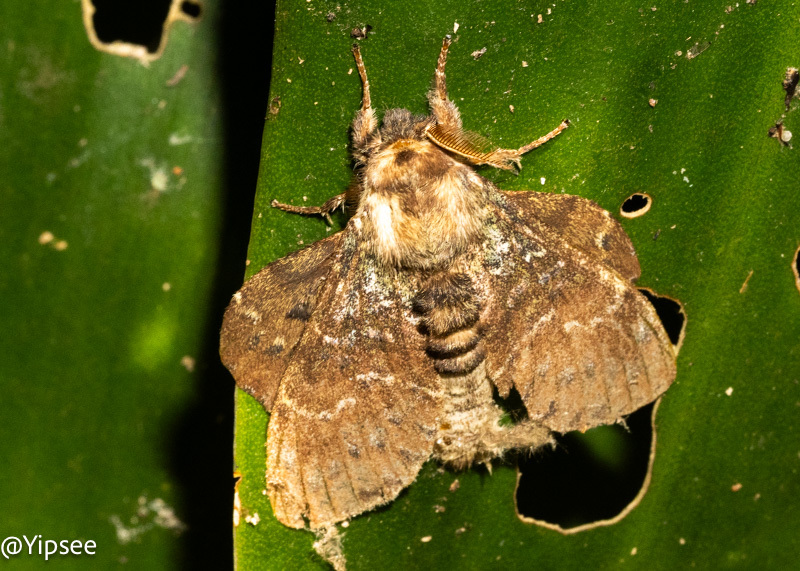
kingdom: Animalia
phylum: Arthropoda
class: Insecta
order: Lepidoptera
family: Notodontidae
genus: Stauropus
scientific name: Stauropus major
